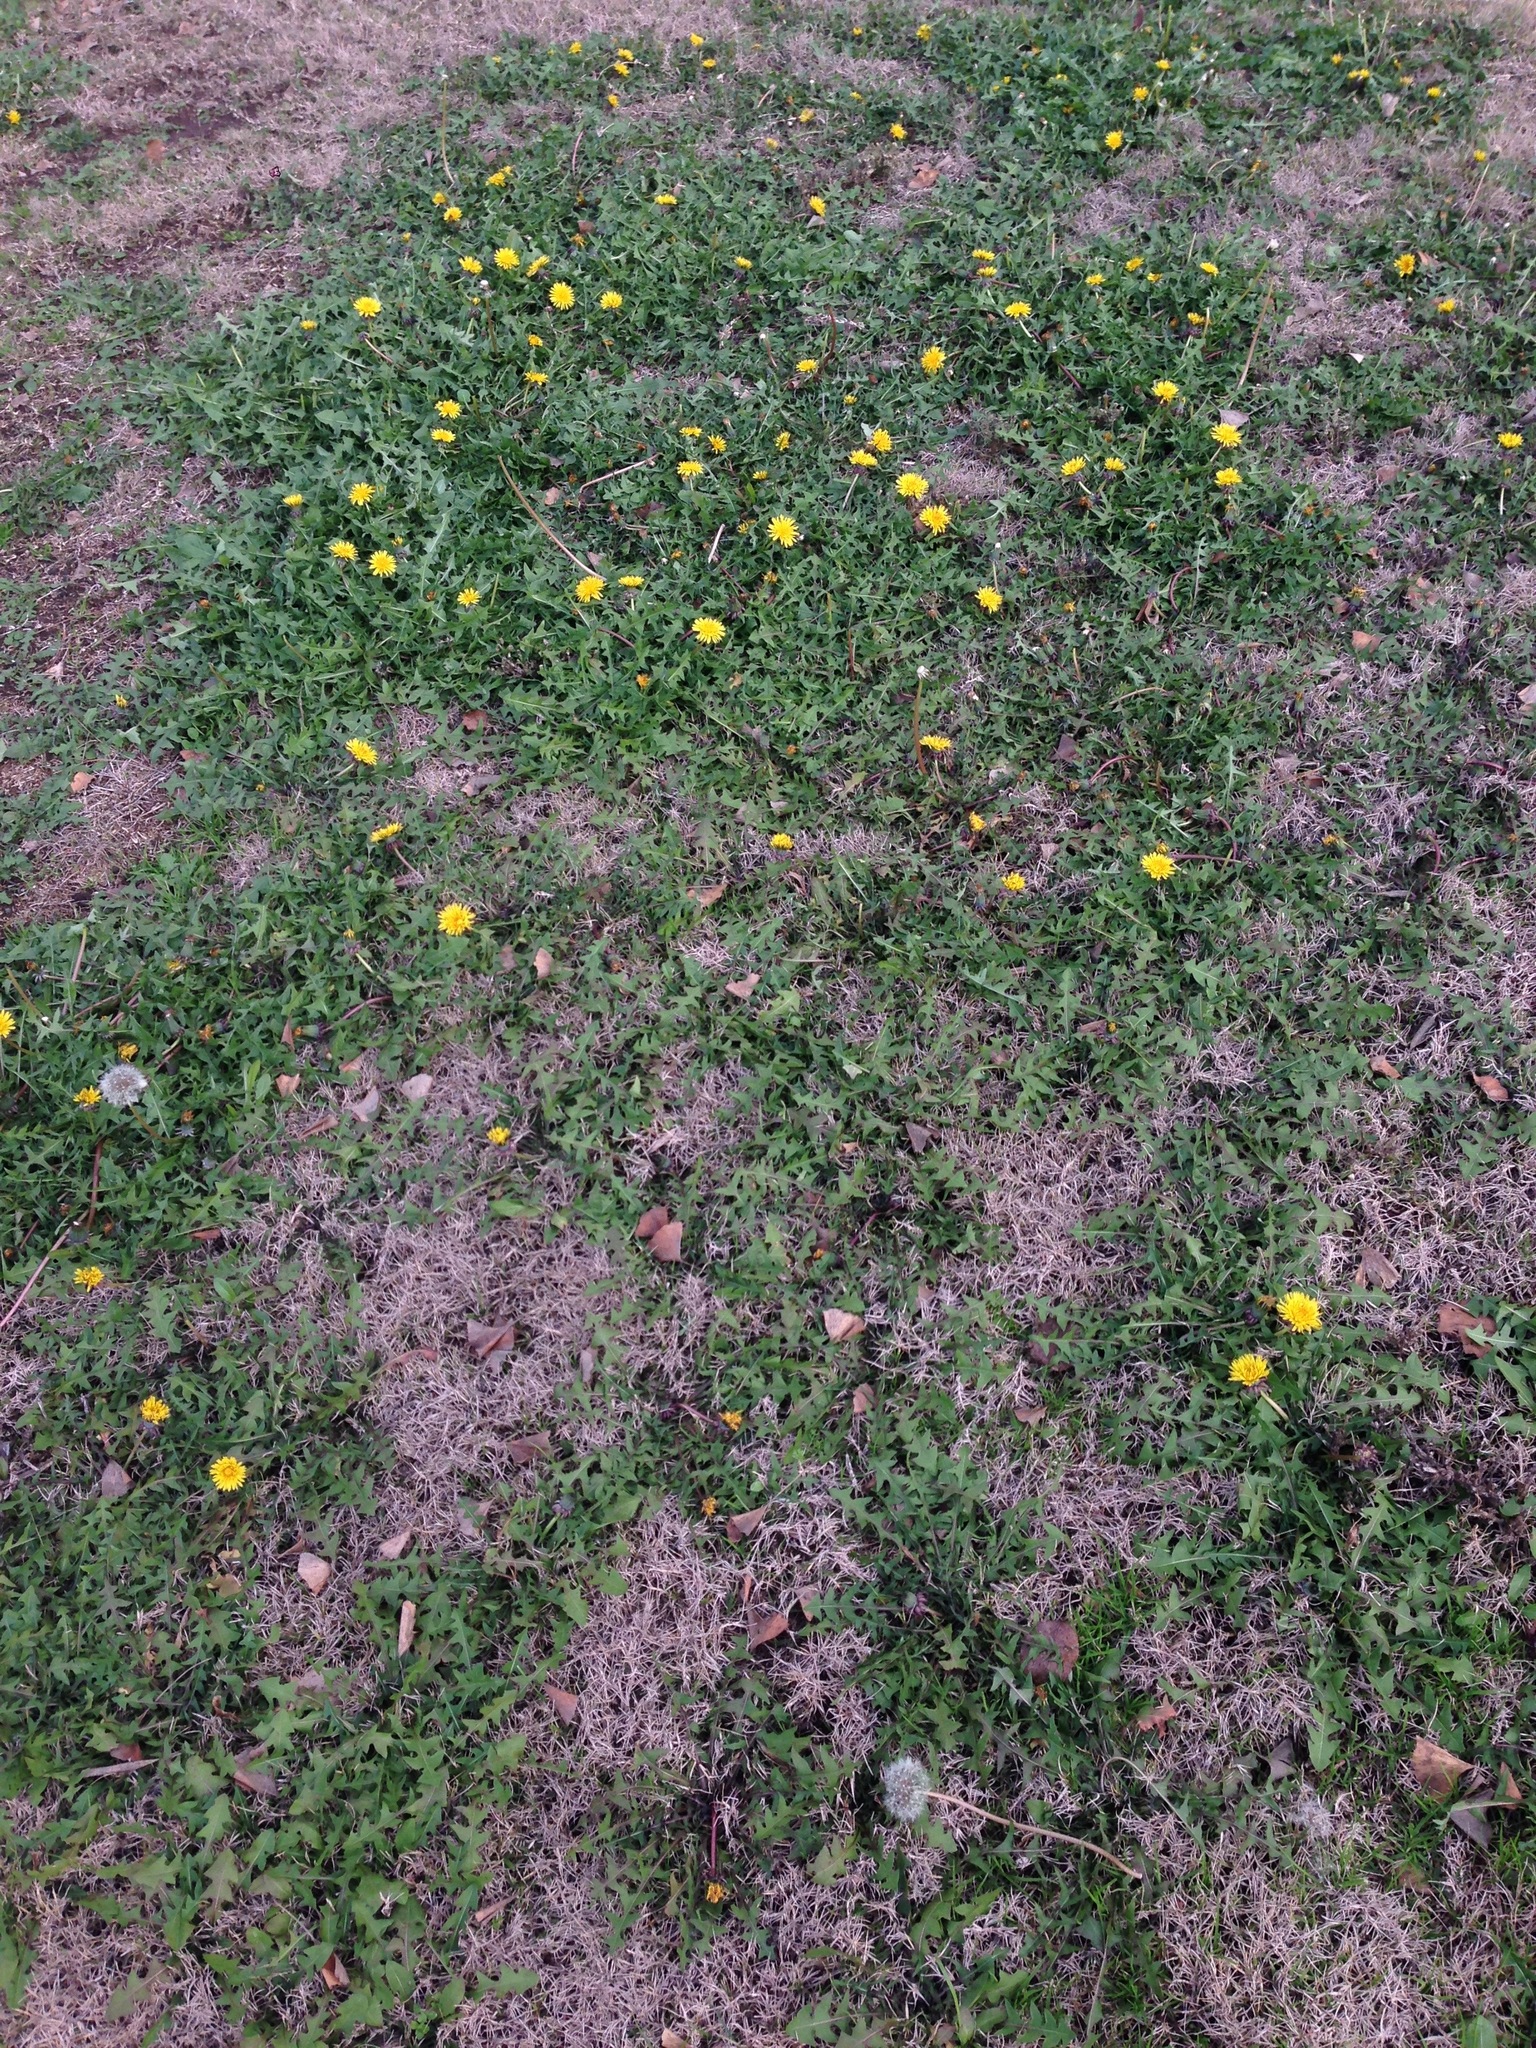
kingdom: Plantae
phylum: Tracheophyta
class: Magnoliopsida
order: Asterales
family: Asteraceae
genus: Taraxacum
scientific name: Taraxacum officinale
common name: Common dandelion
